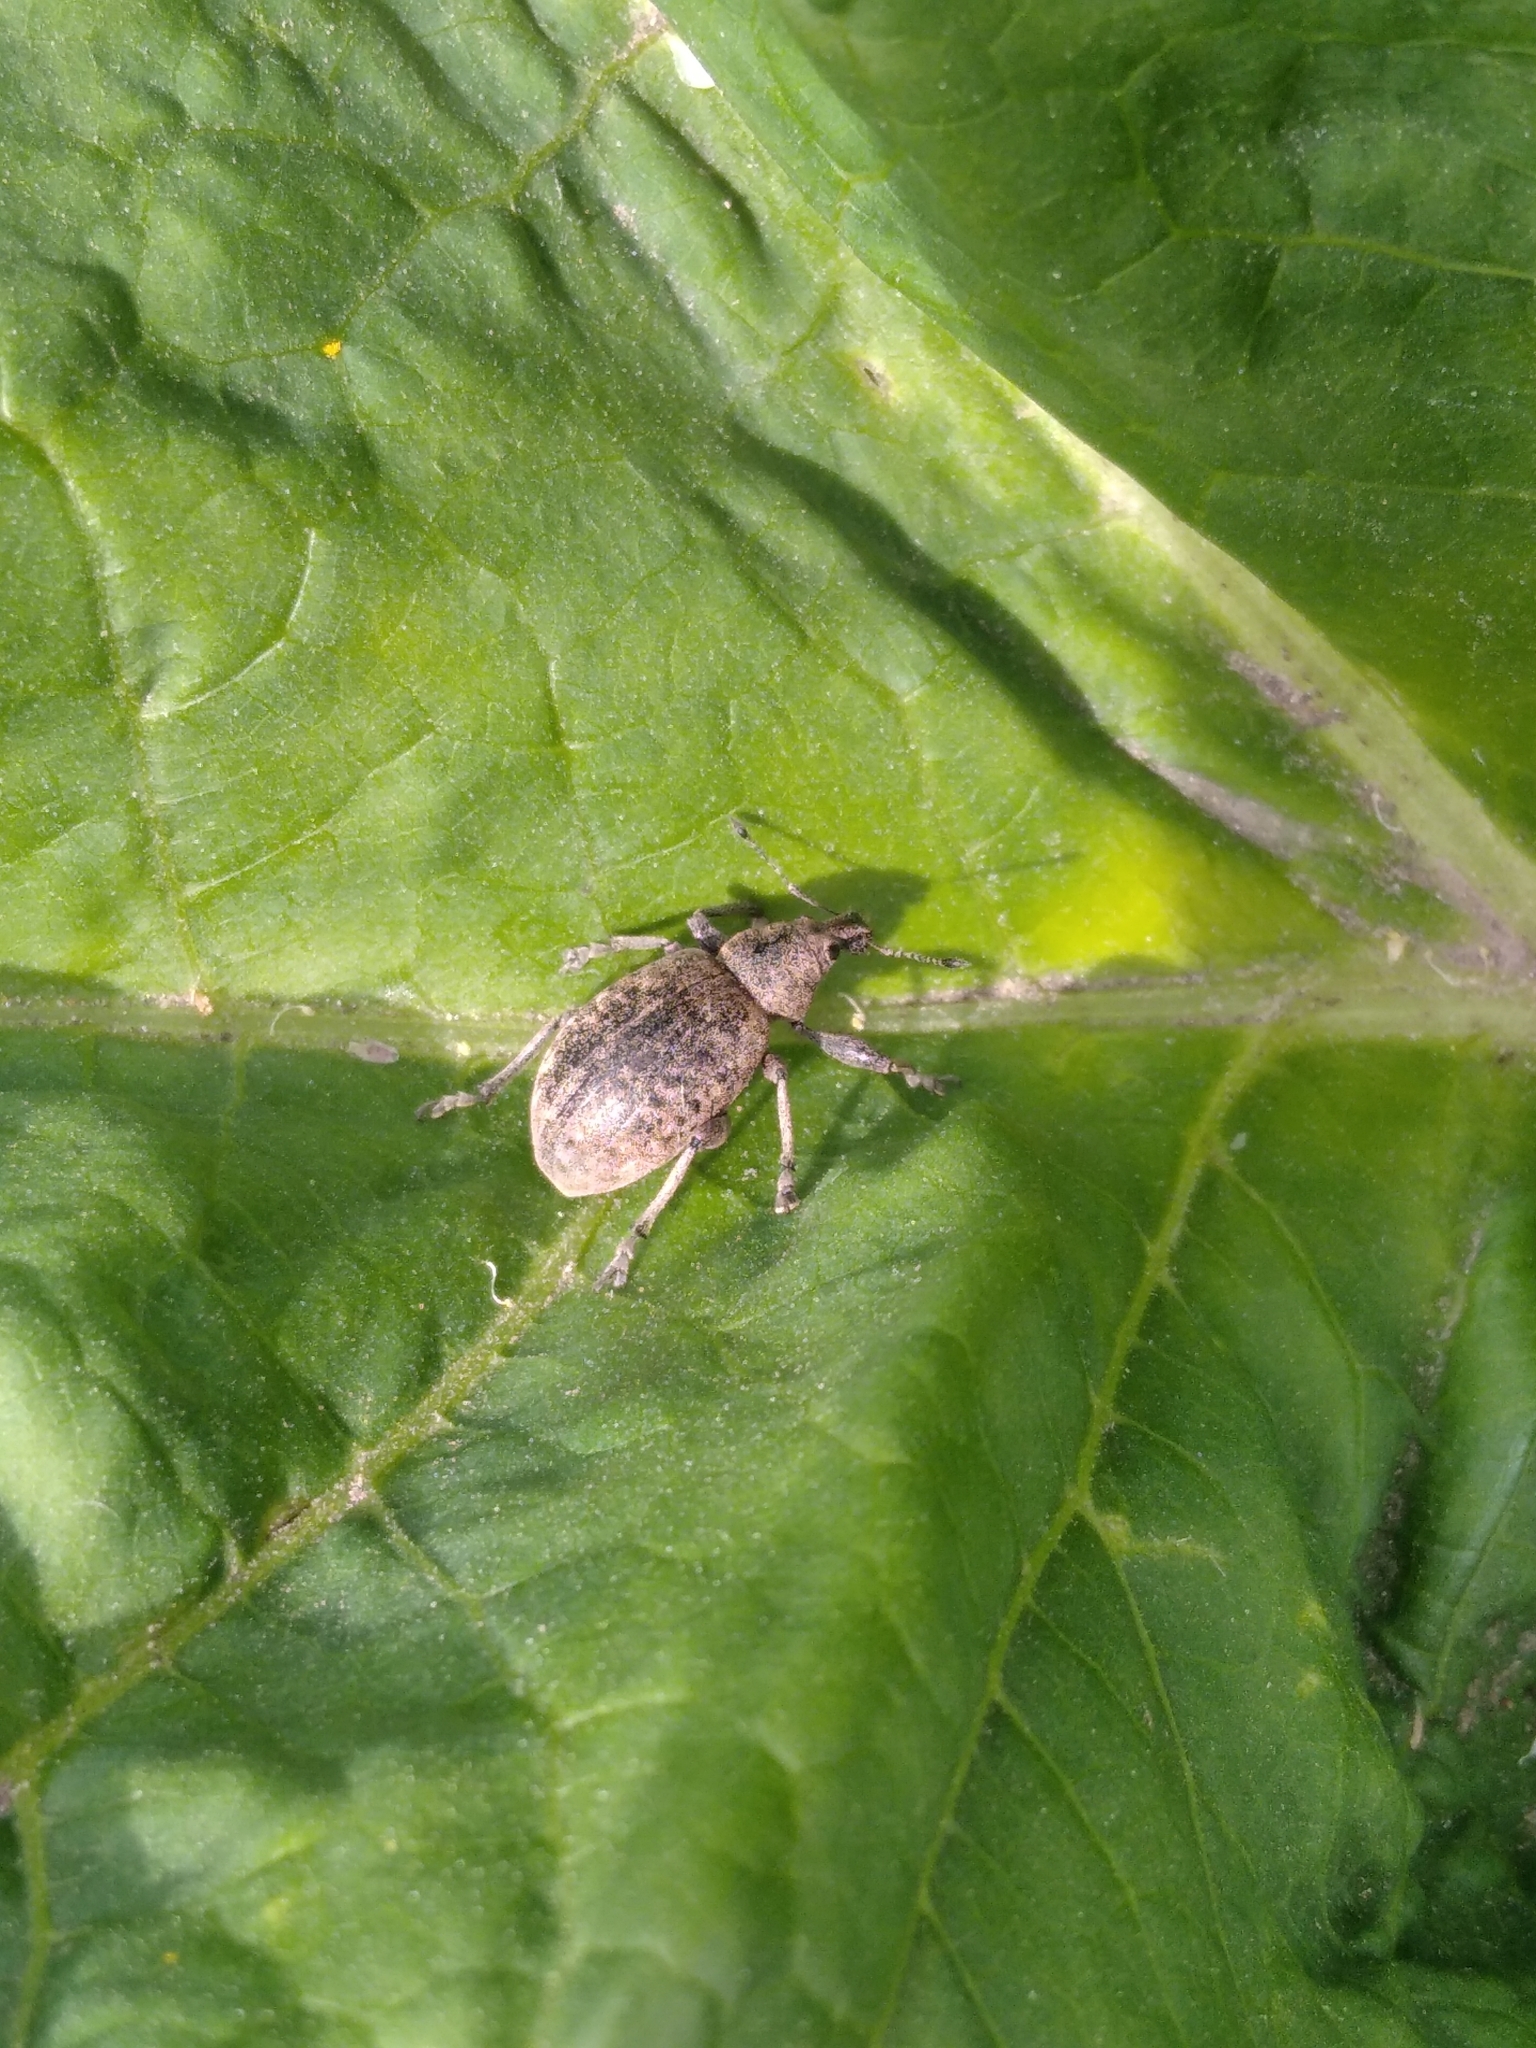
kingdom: Animalia
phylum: Arthropoda
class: Insecta
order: Coleoptera
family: Curculionidae
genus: Liophloeus
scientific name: Liophloeus tessulatus
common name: Weevil
